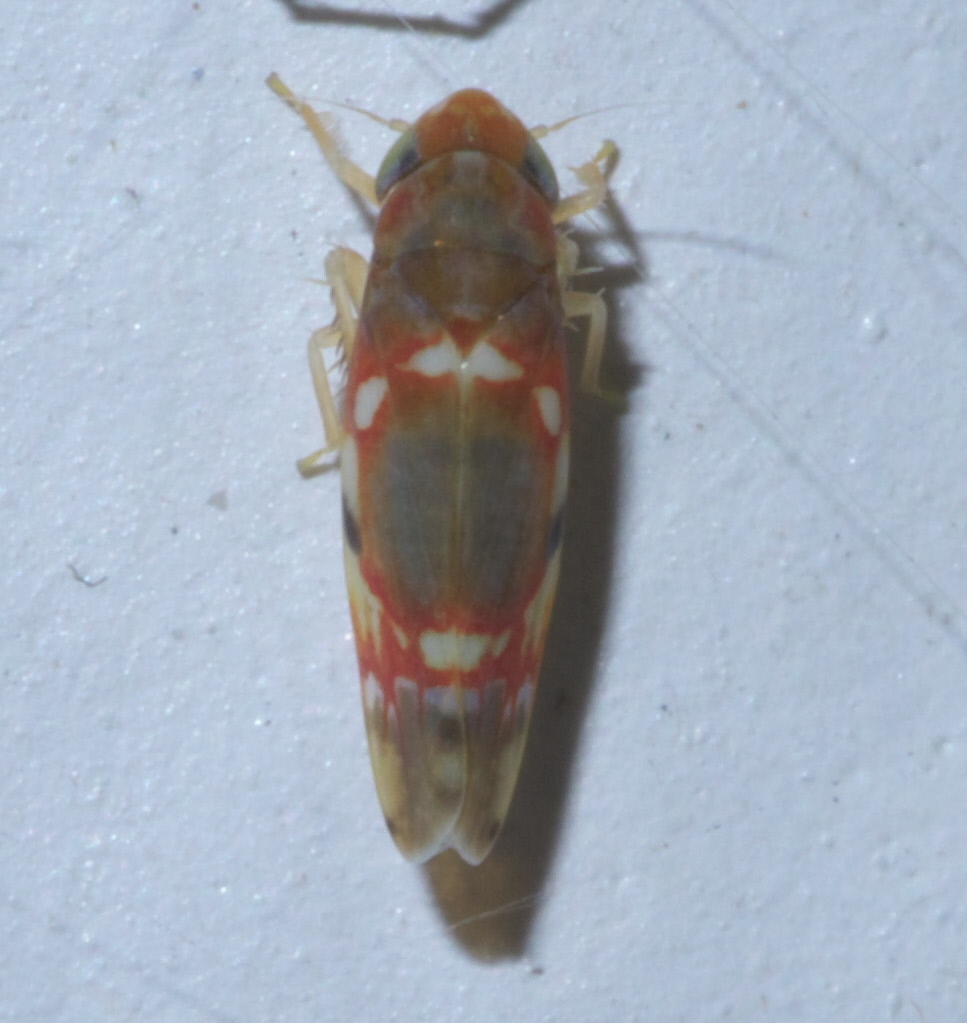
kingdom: Animalia
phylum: Arthropoda
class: Insecta
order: Hemiptera
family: Cicadellidae
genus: Erythroneura
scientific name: Erythroneura vitis
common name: Grapevine leafhopper
